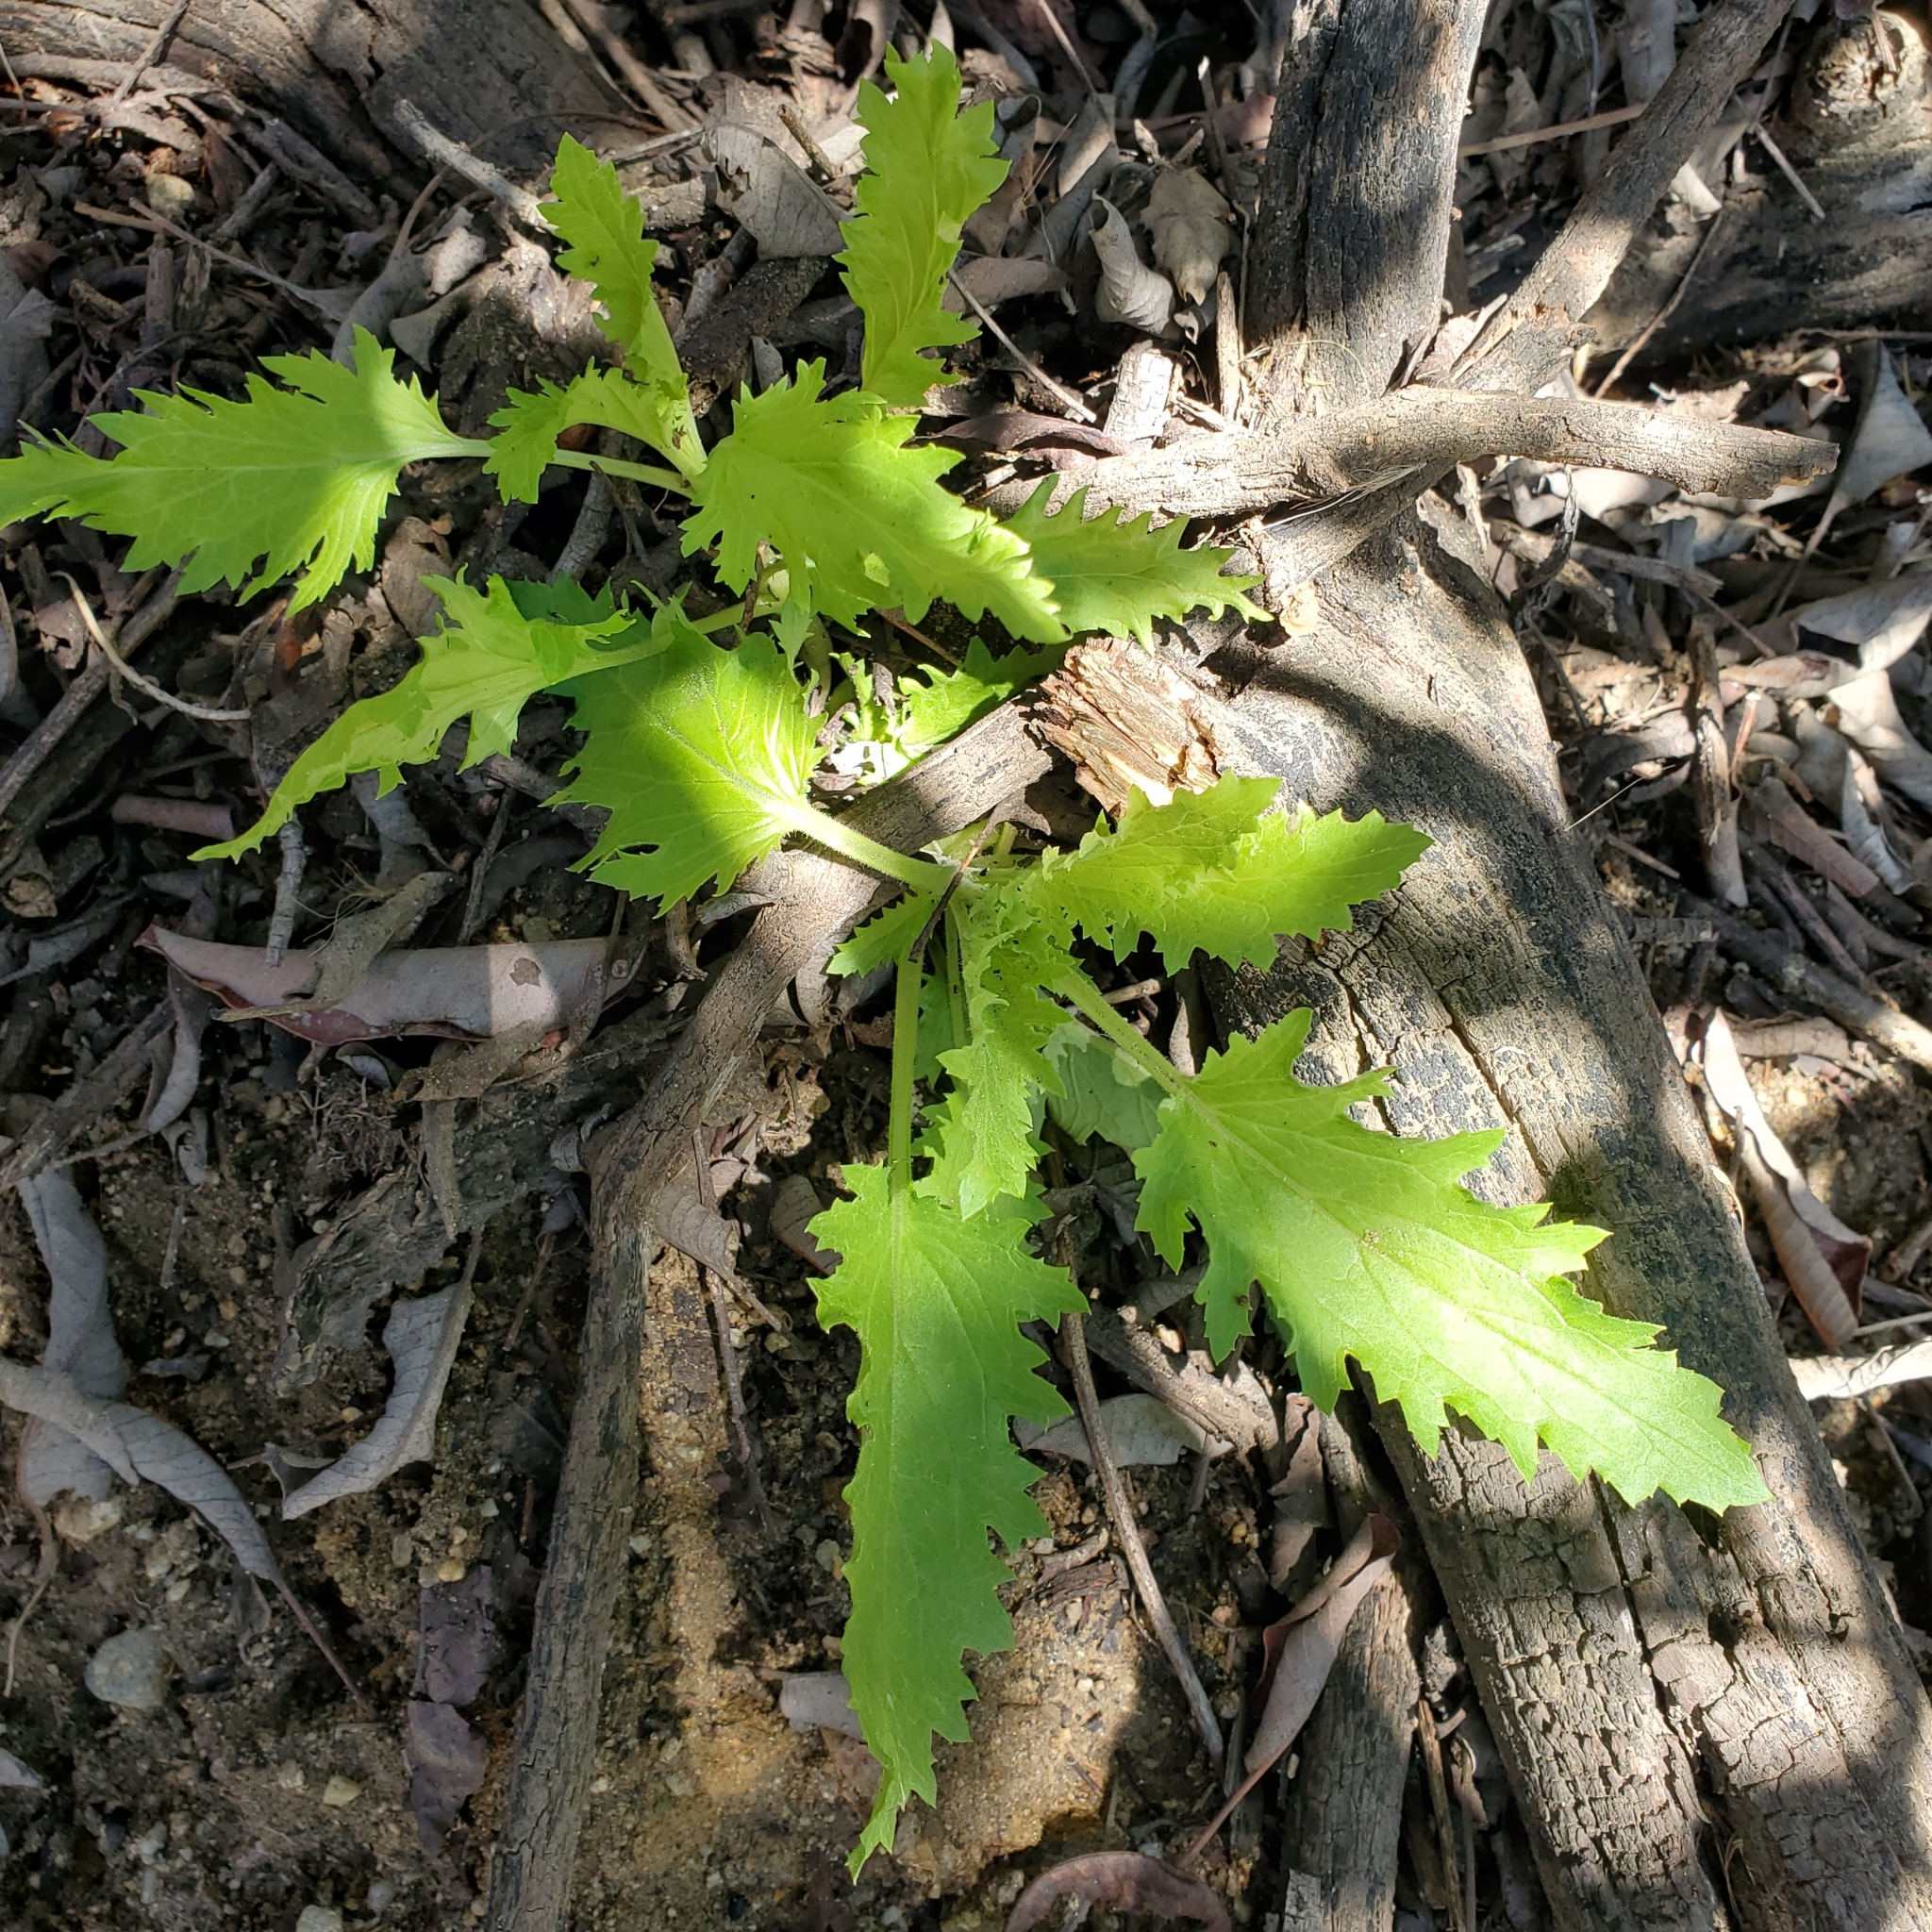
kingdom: Plantae
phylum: Tracheophyta
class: Magnoliopsida
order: Lamiales
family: Scrophulariaceae
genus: Scrophularia
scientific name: Scrophularia californica
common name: California figwort
